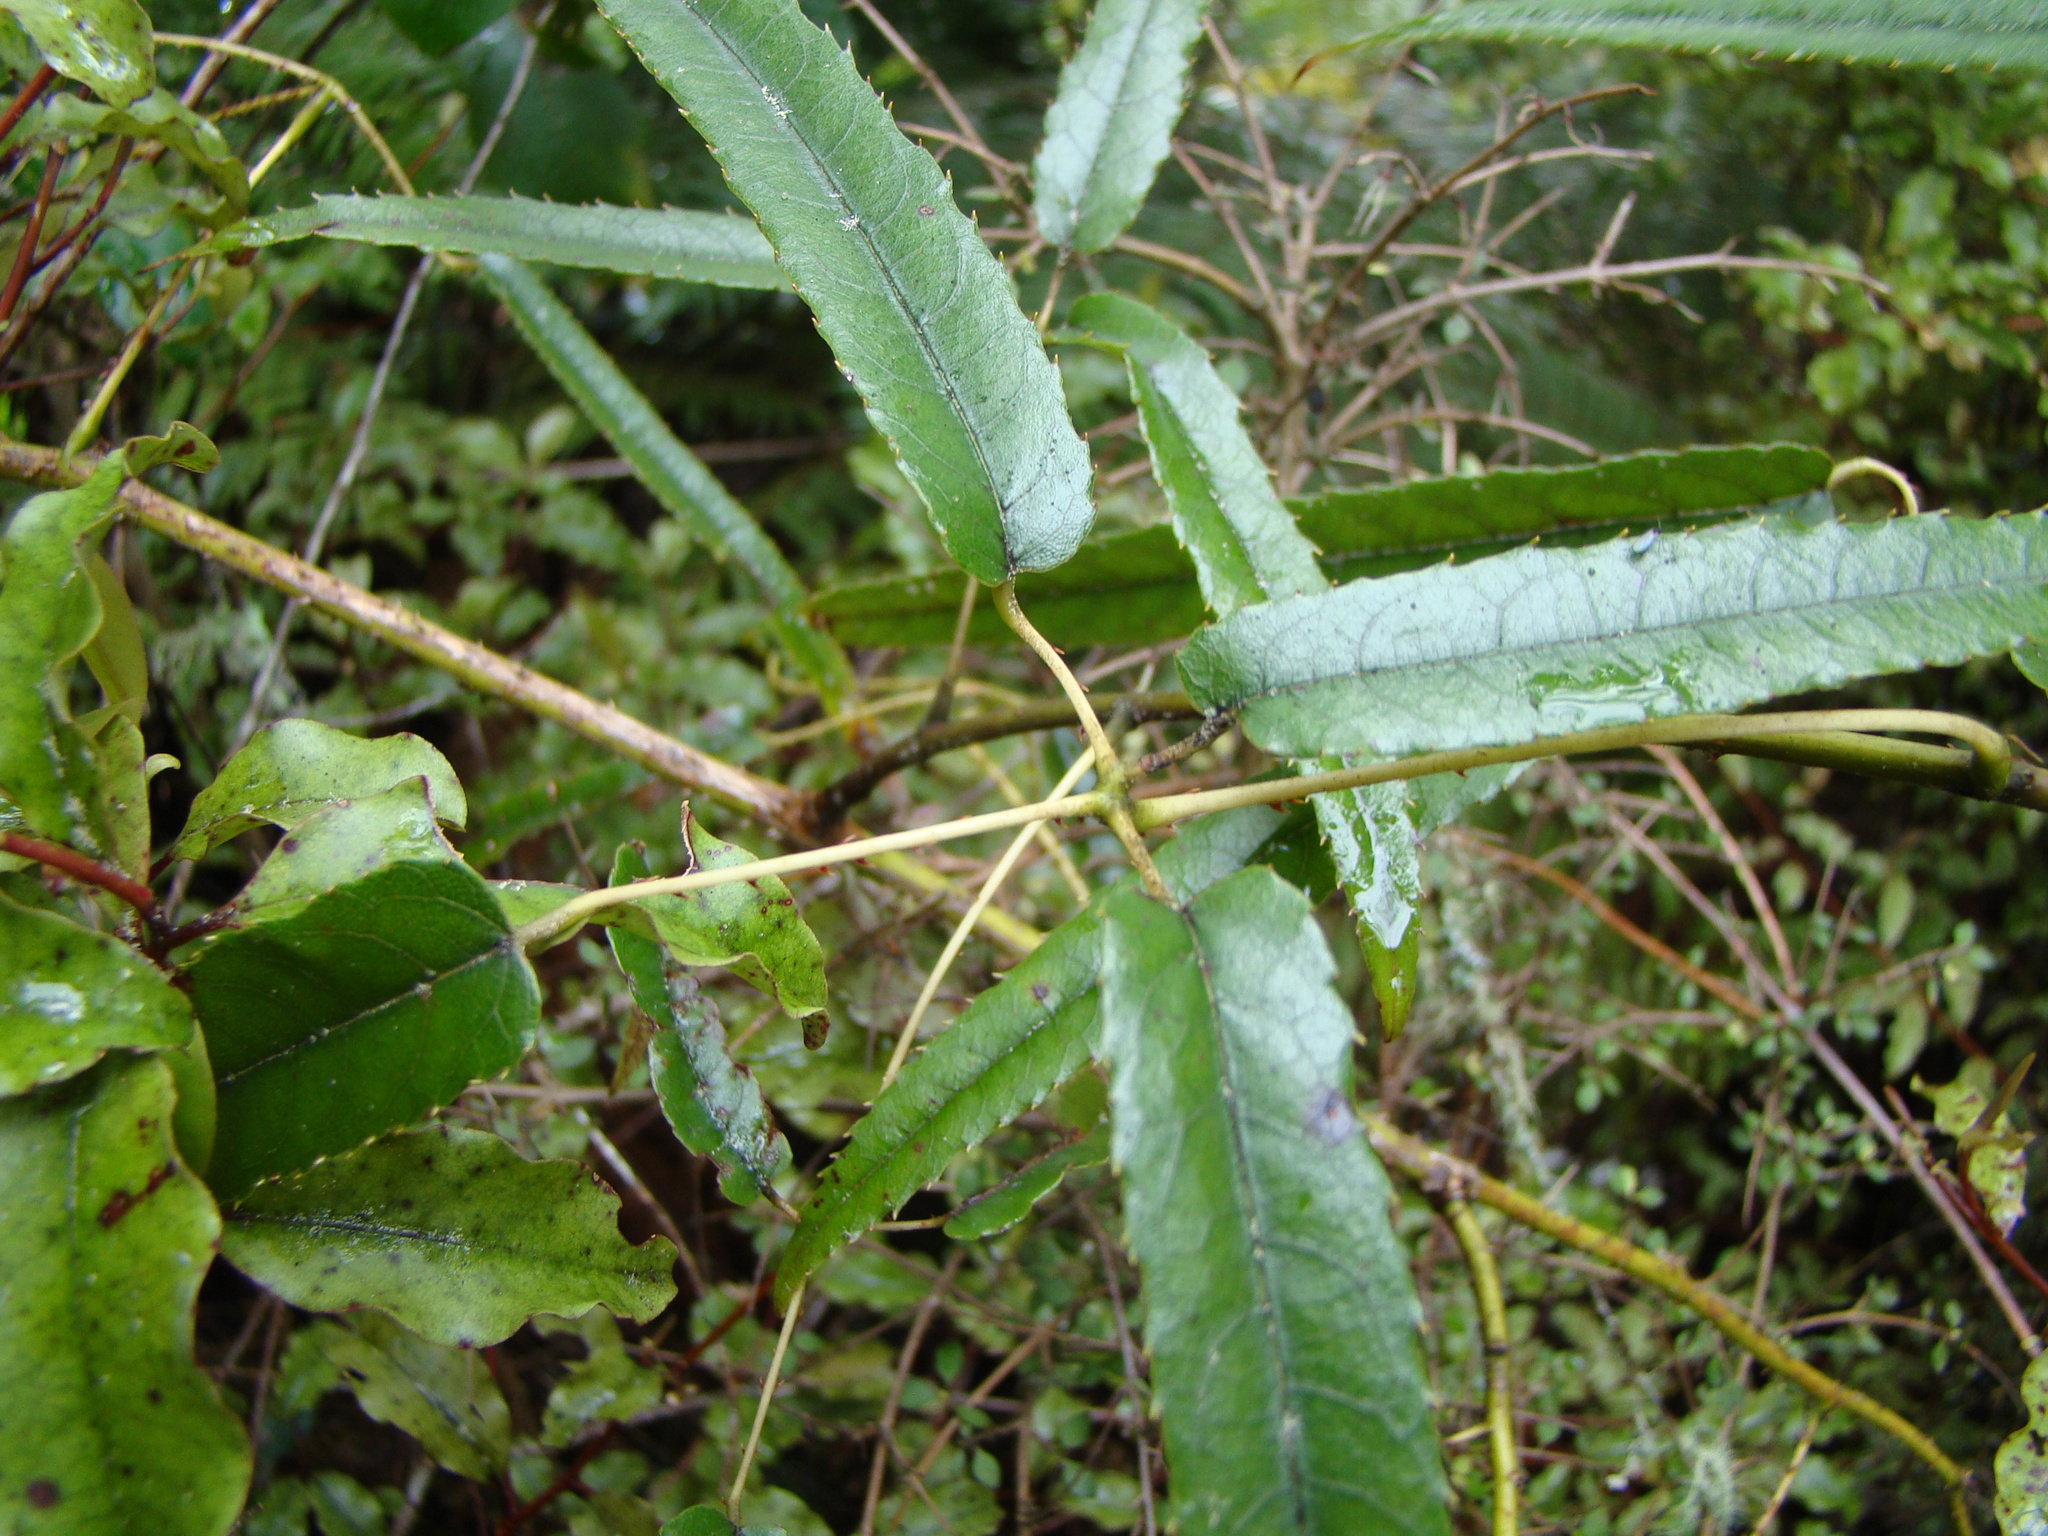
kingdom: Plantae
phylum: Tracheophyta
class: Magnoliopsida
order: Rosales
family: Rosaceae
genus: Rubus
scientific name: Rubus cissoides
